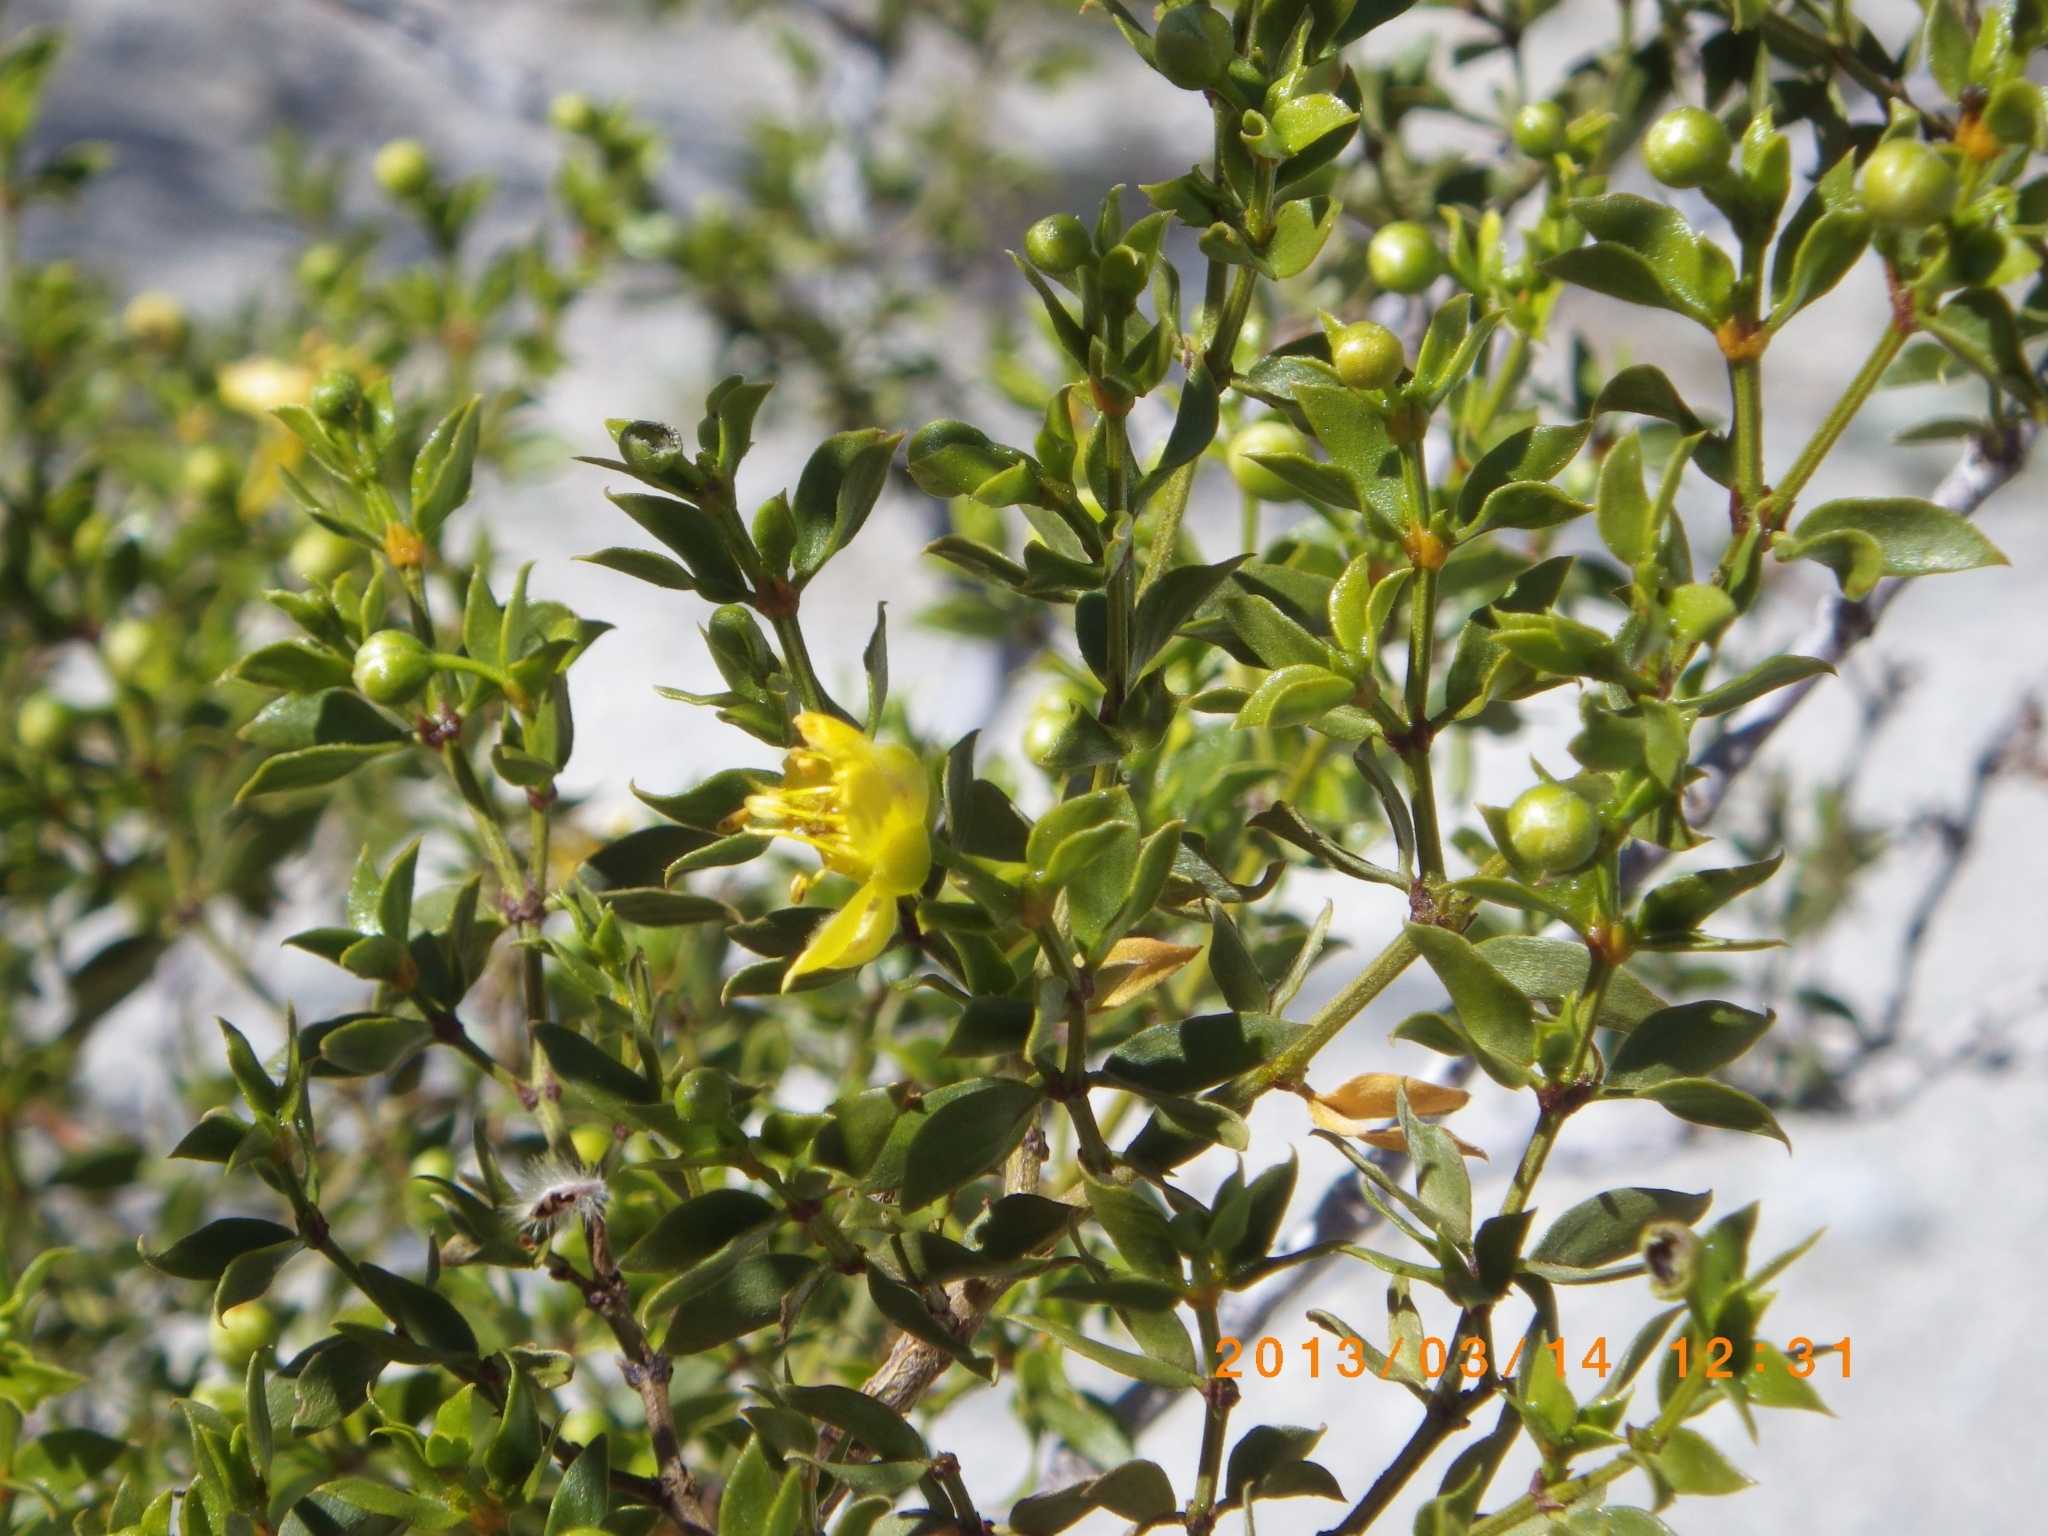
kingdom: Plantae
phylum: Tracheophyta
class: Magnoliopsida
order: Zygophyllales
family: Zygophyllaceae
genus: Larrea
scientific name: Larrea tridentata
